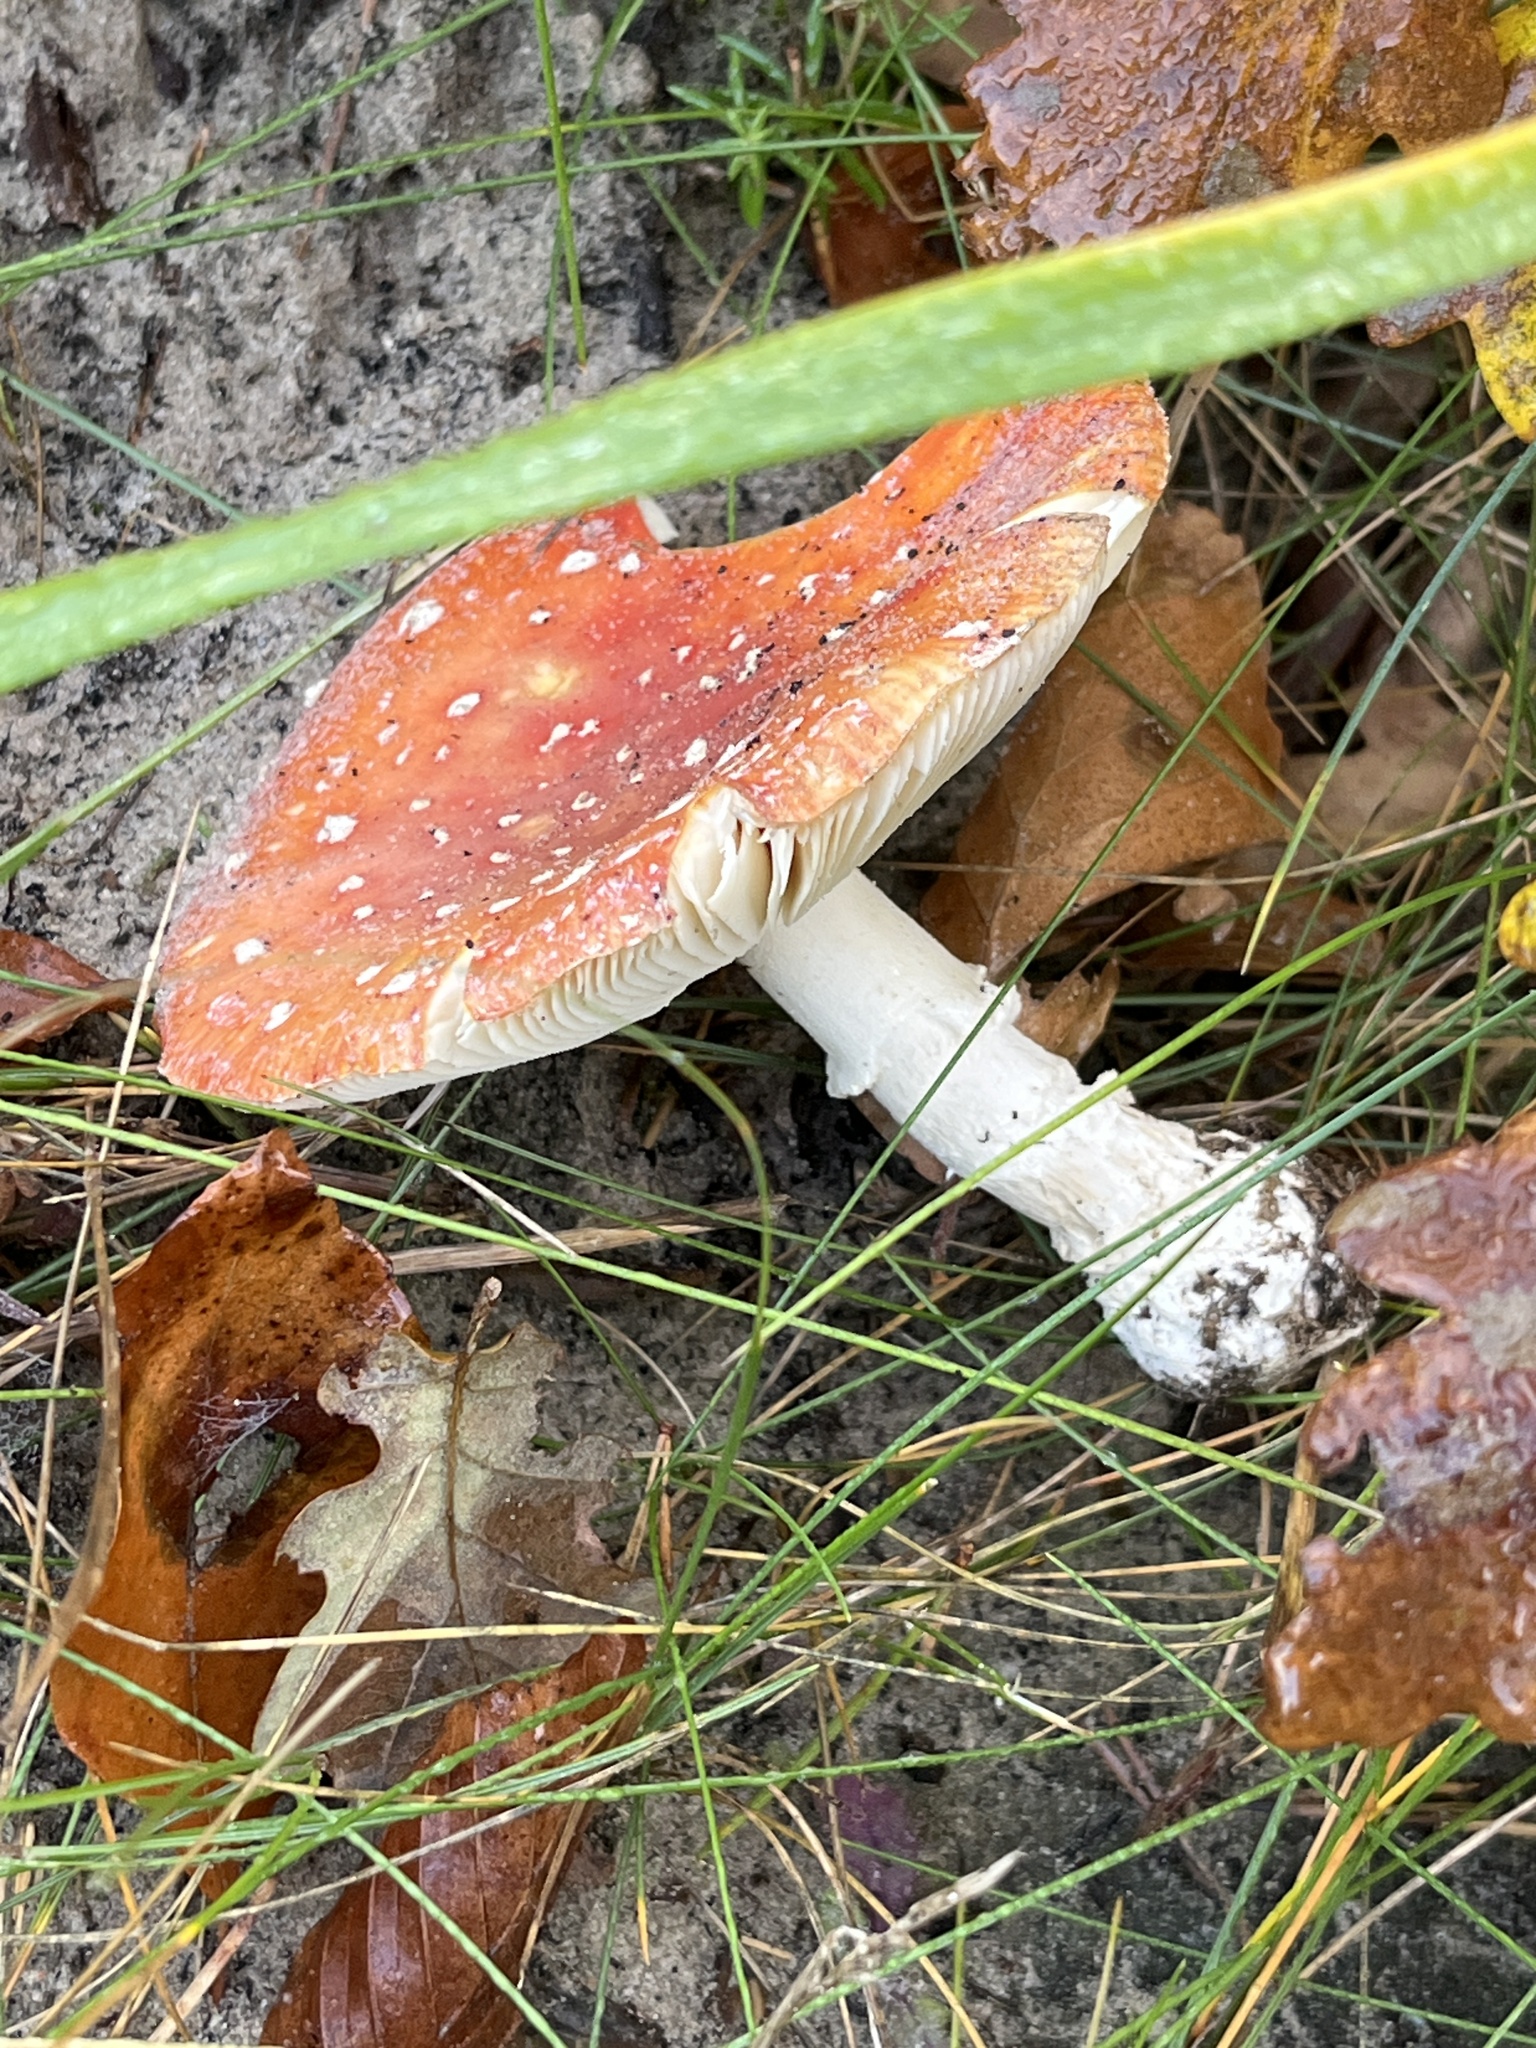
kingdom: Fungi
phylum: Basidiomycota
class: Agaricomycetes
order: Agaricales
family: Amanitaceae
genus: Amanita
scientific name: Amanita muscaria
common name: Fly agaric
